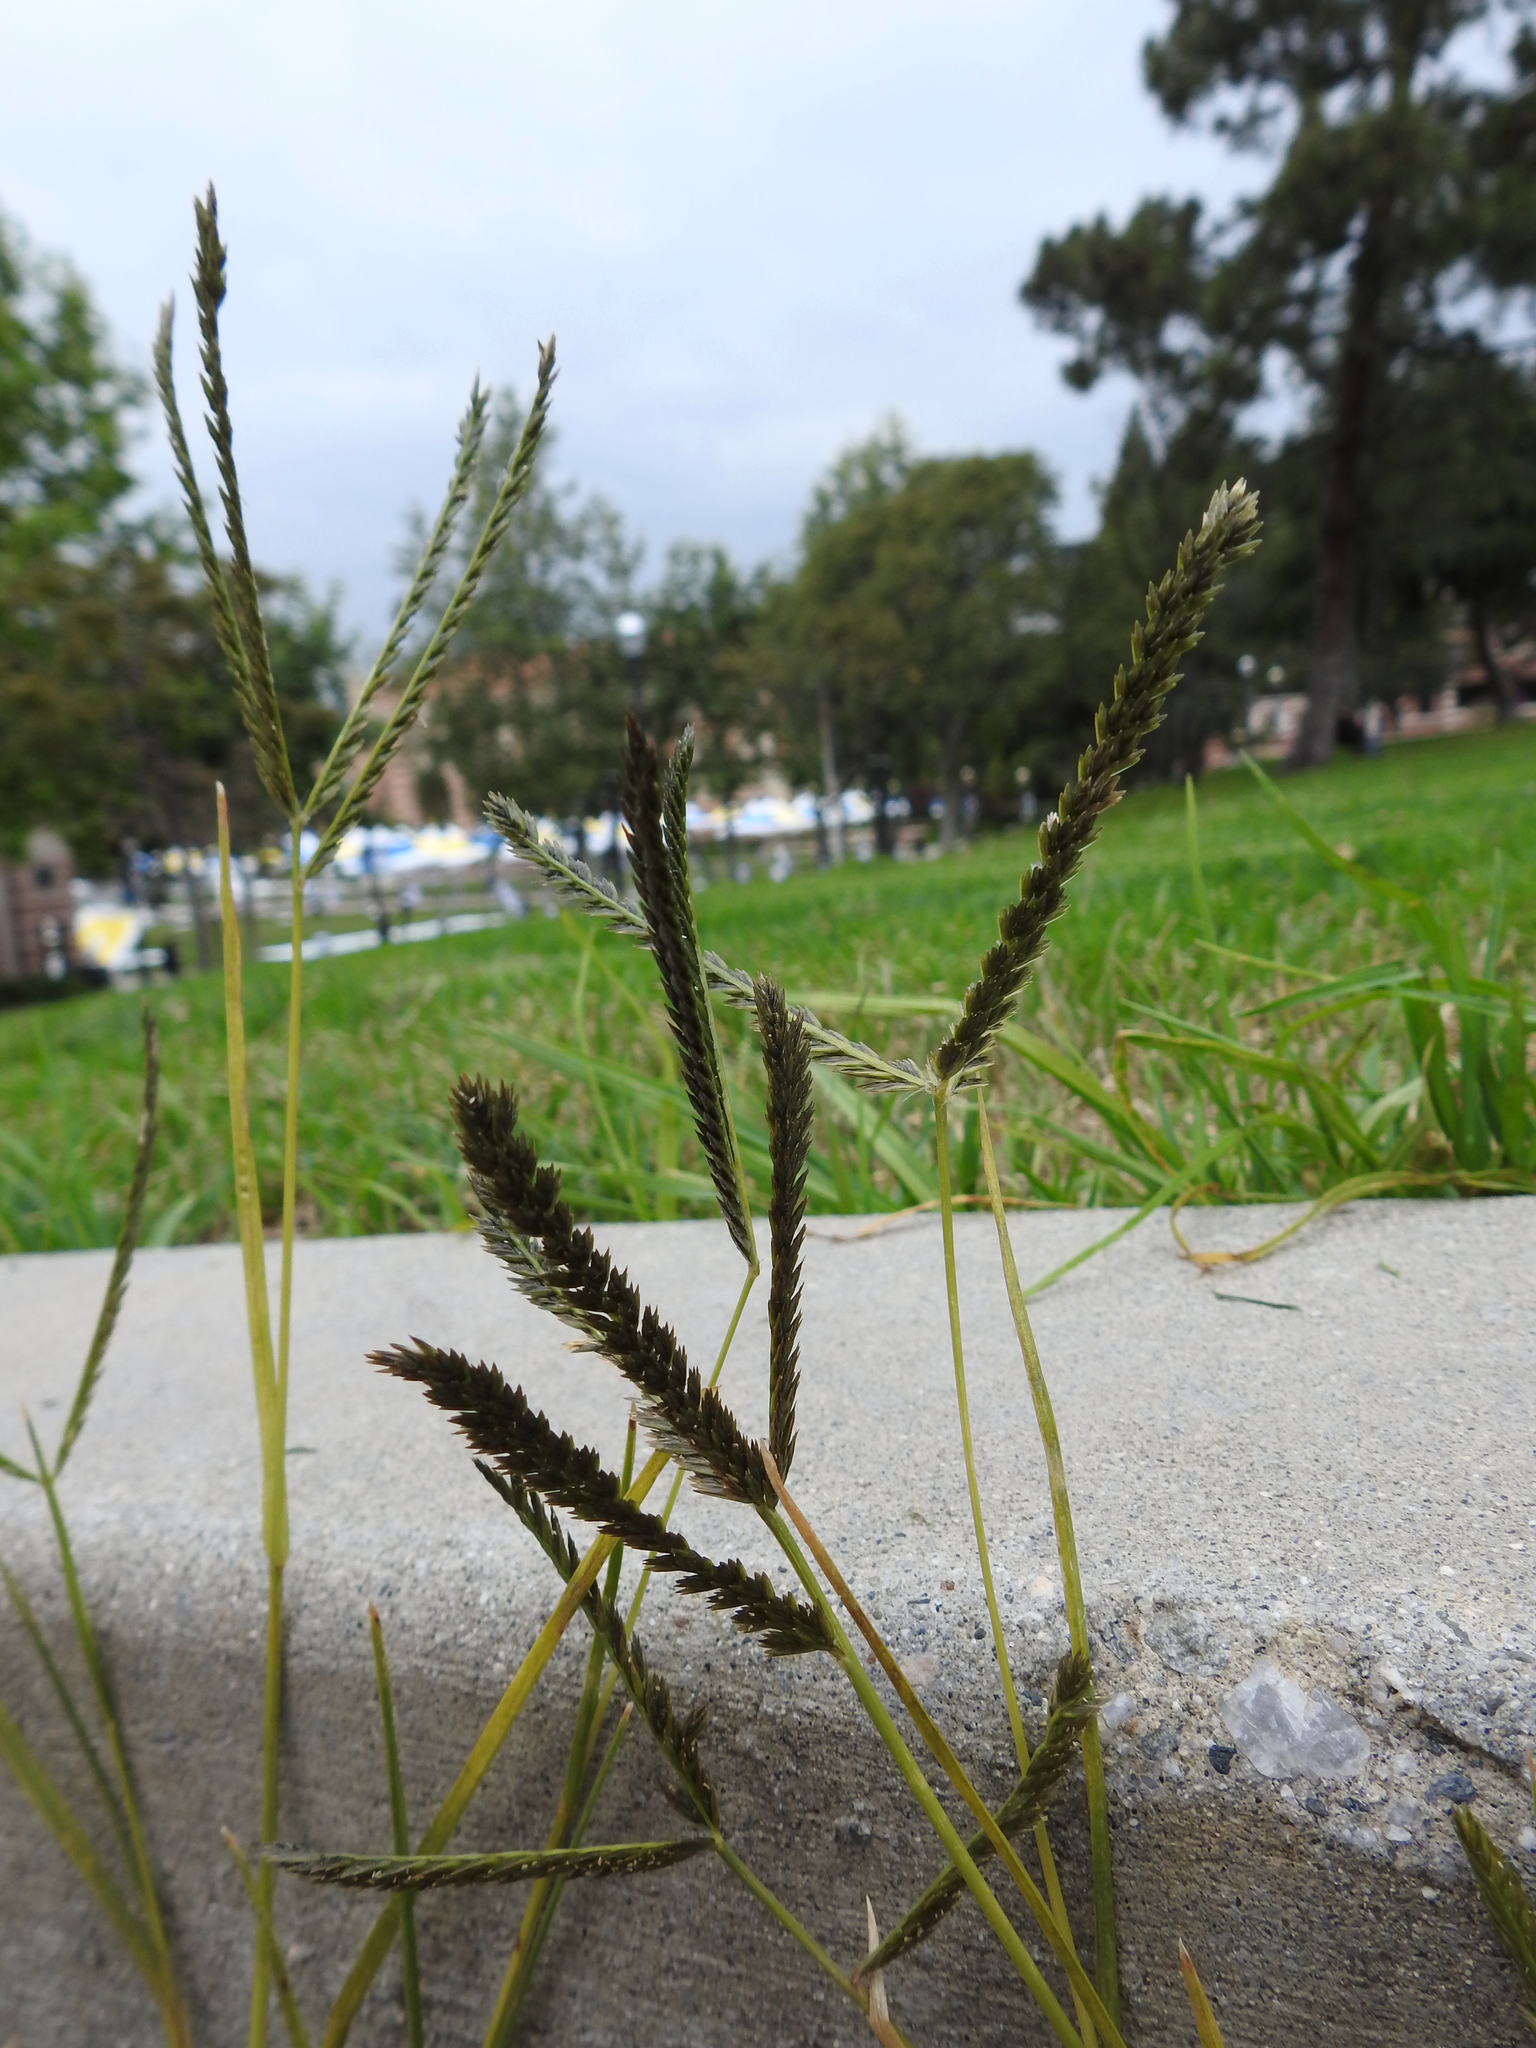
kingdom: Plantae
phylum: Tracheophyta
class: Liliopsida
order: Poales
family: Poaceae
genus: Eleusine
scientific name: Eleusine indica
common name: Yard-grass
